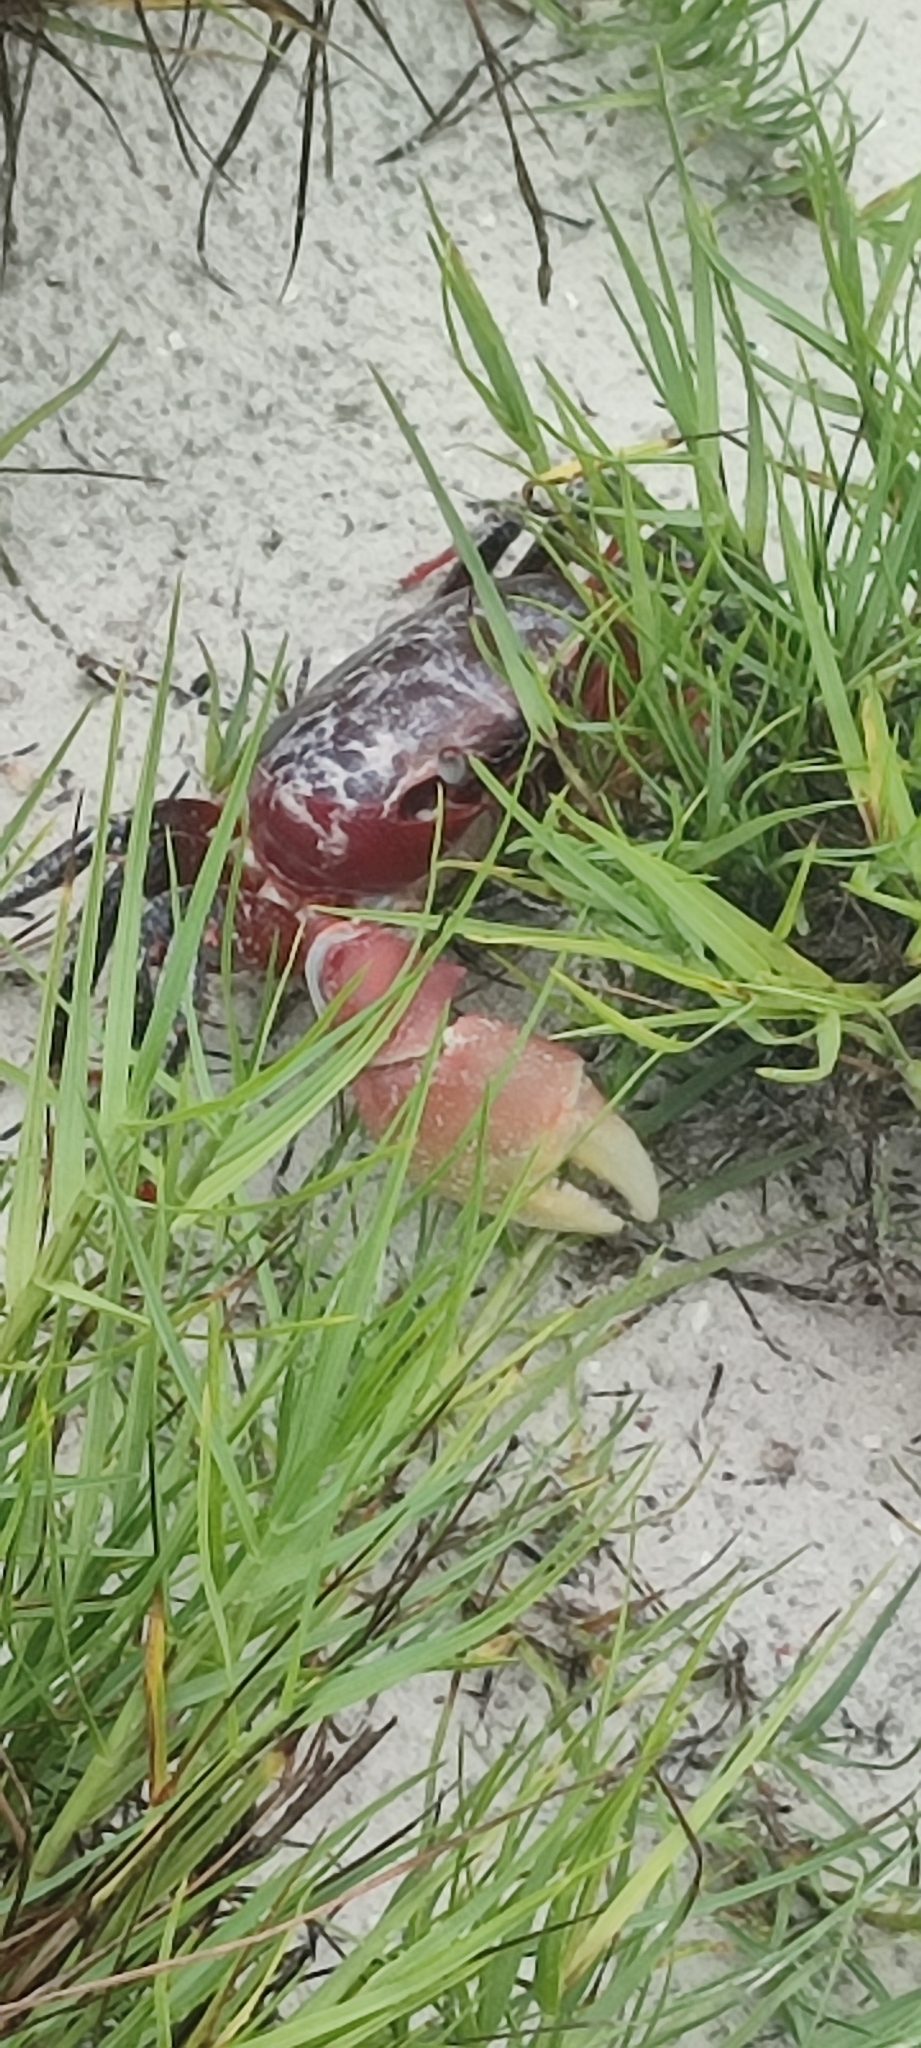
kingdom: Animalia
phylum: Arthropoda
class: Malacostraca
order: Decapoda
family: Gecarcinidae
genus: Cardisoma
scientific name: Cardisoma carnifex
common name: Brown land crab
